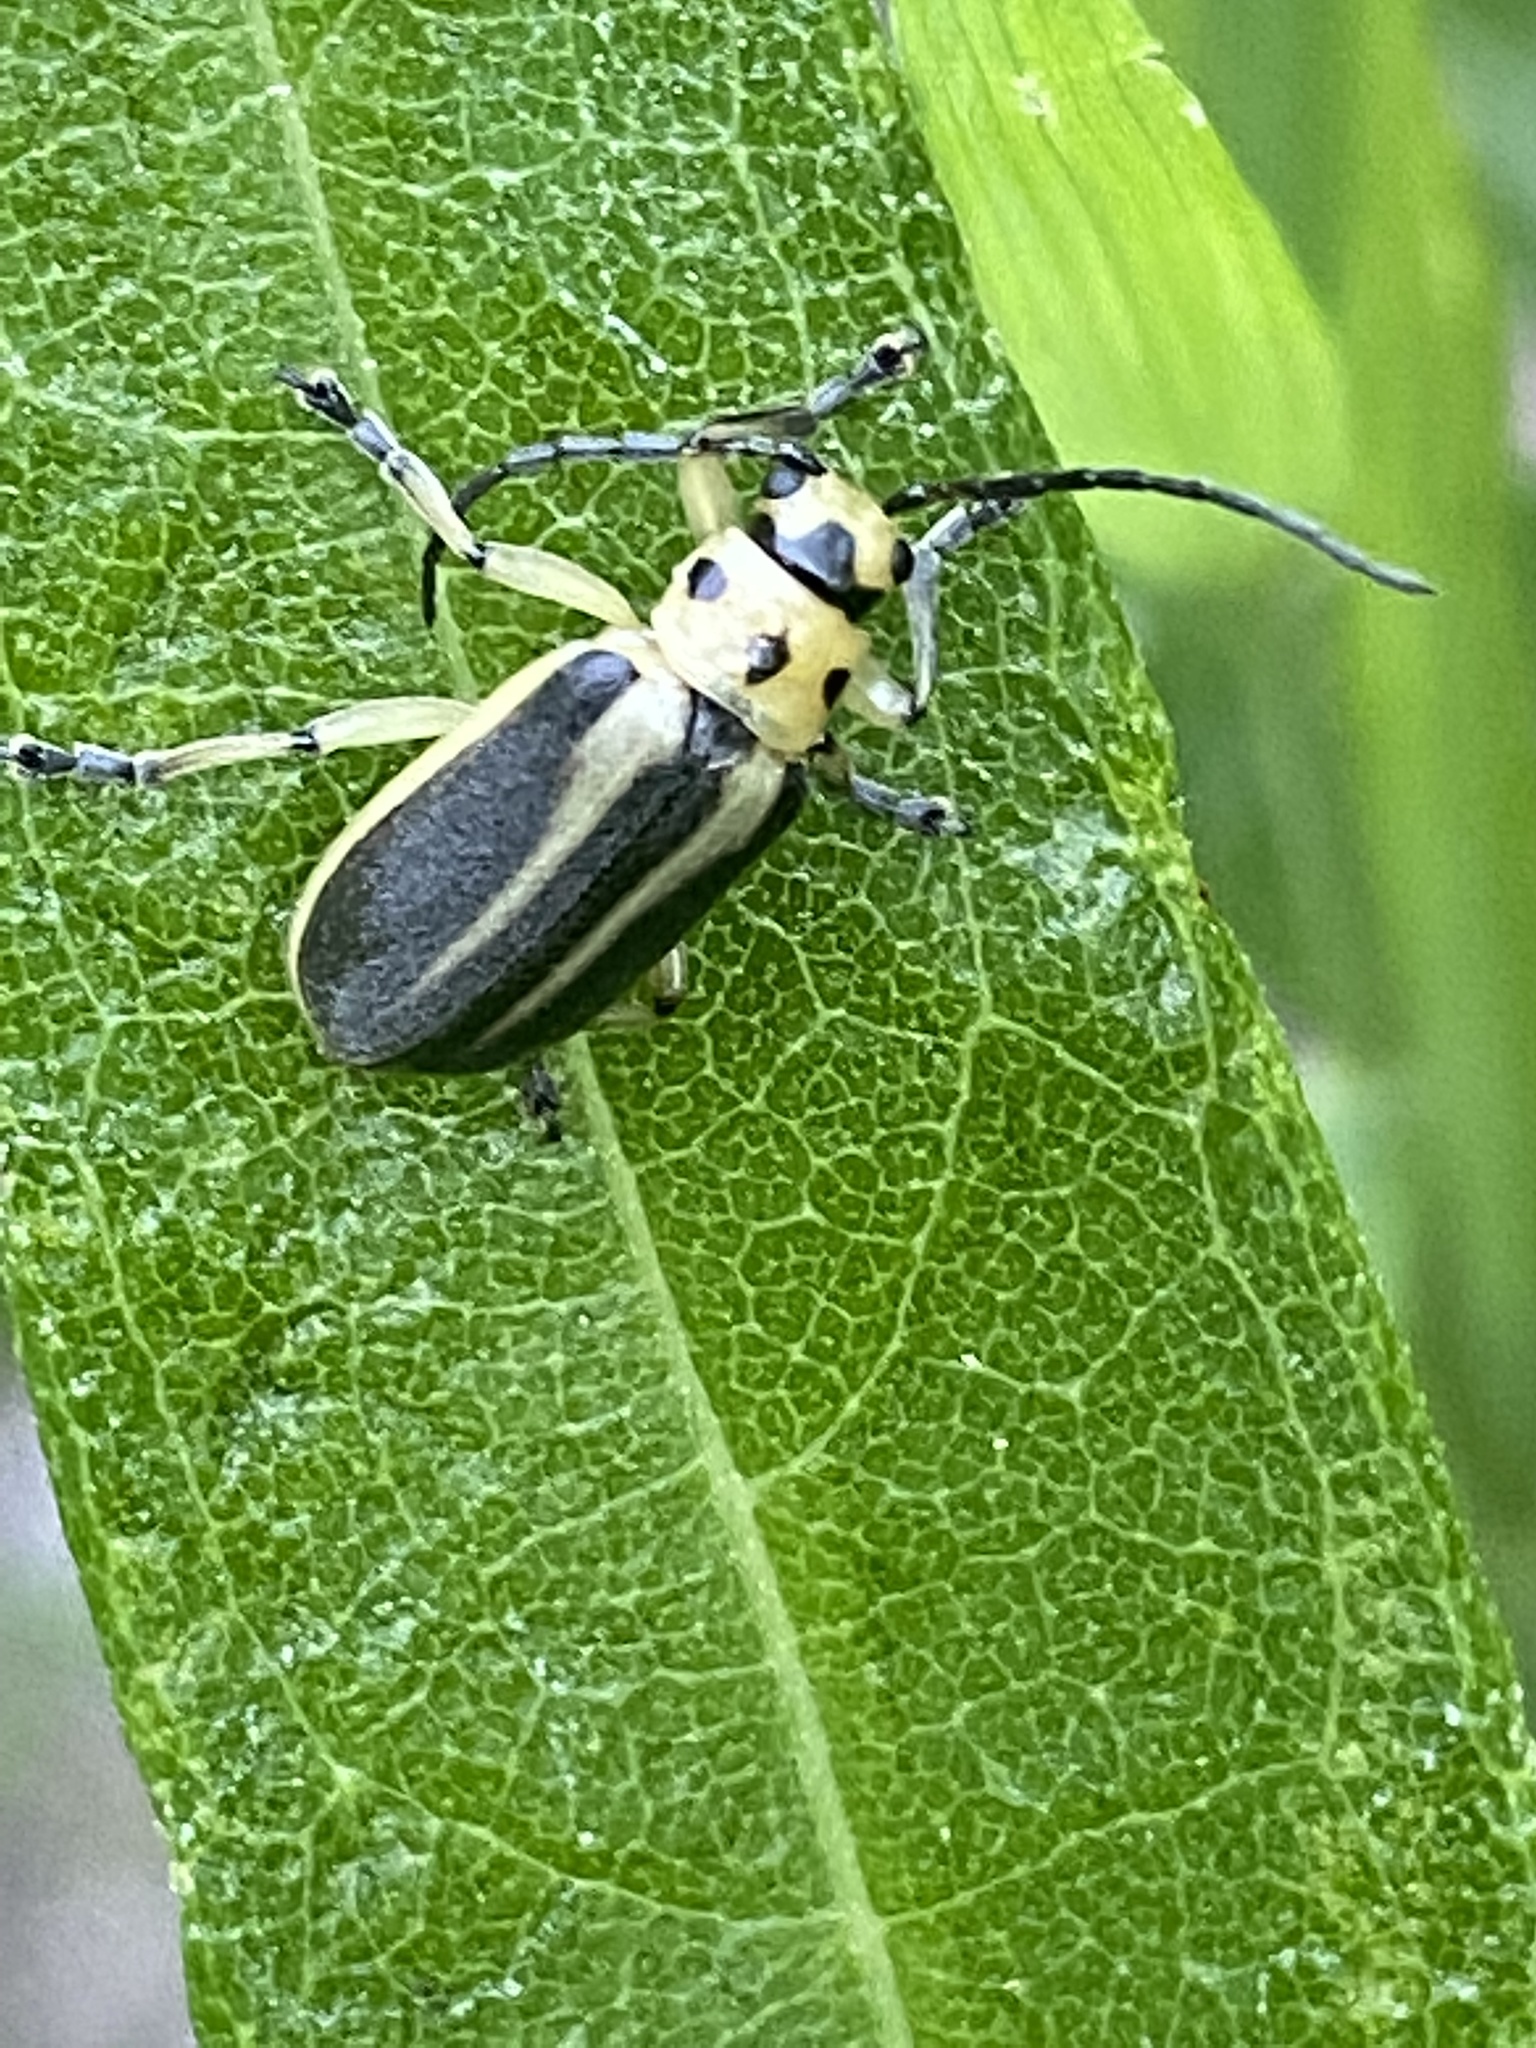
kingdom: Animalia
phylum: Arthropoda
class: Insecta
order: Coleoptera
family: Chrysomelidae
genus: Trirhabda
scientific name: Trirhabda bacharidis
